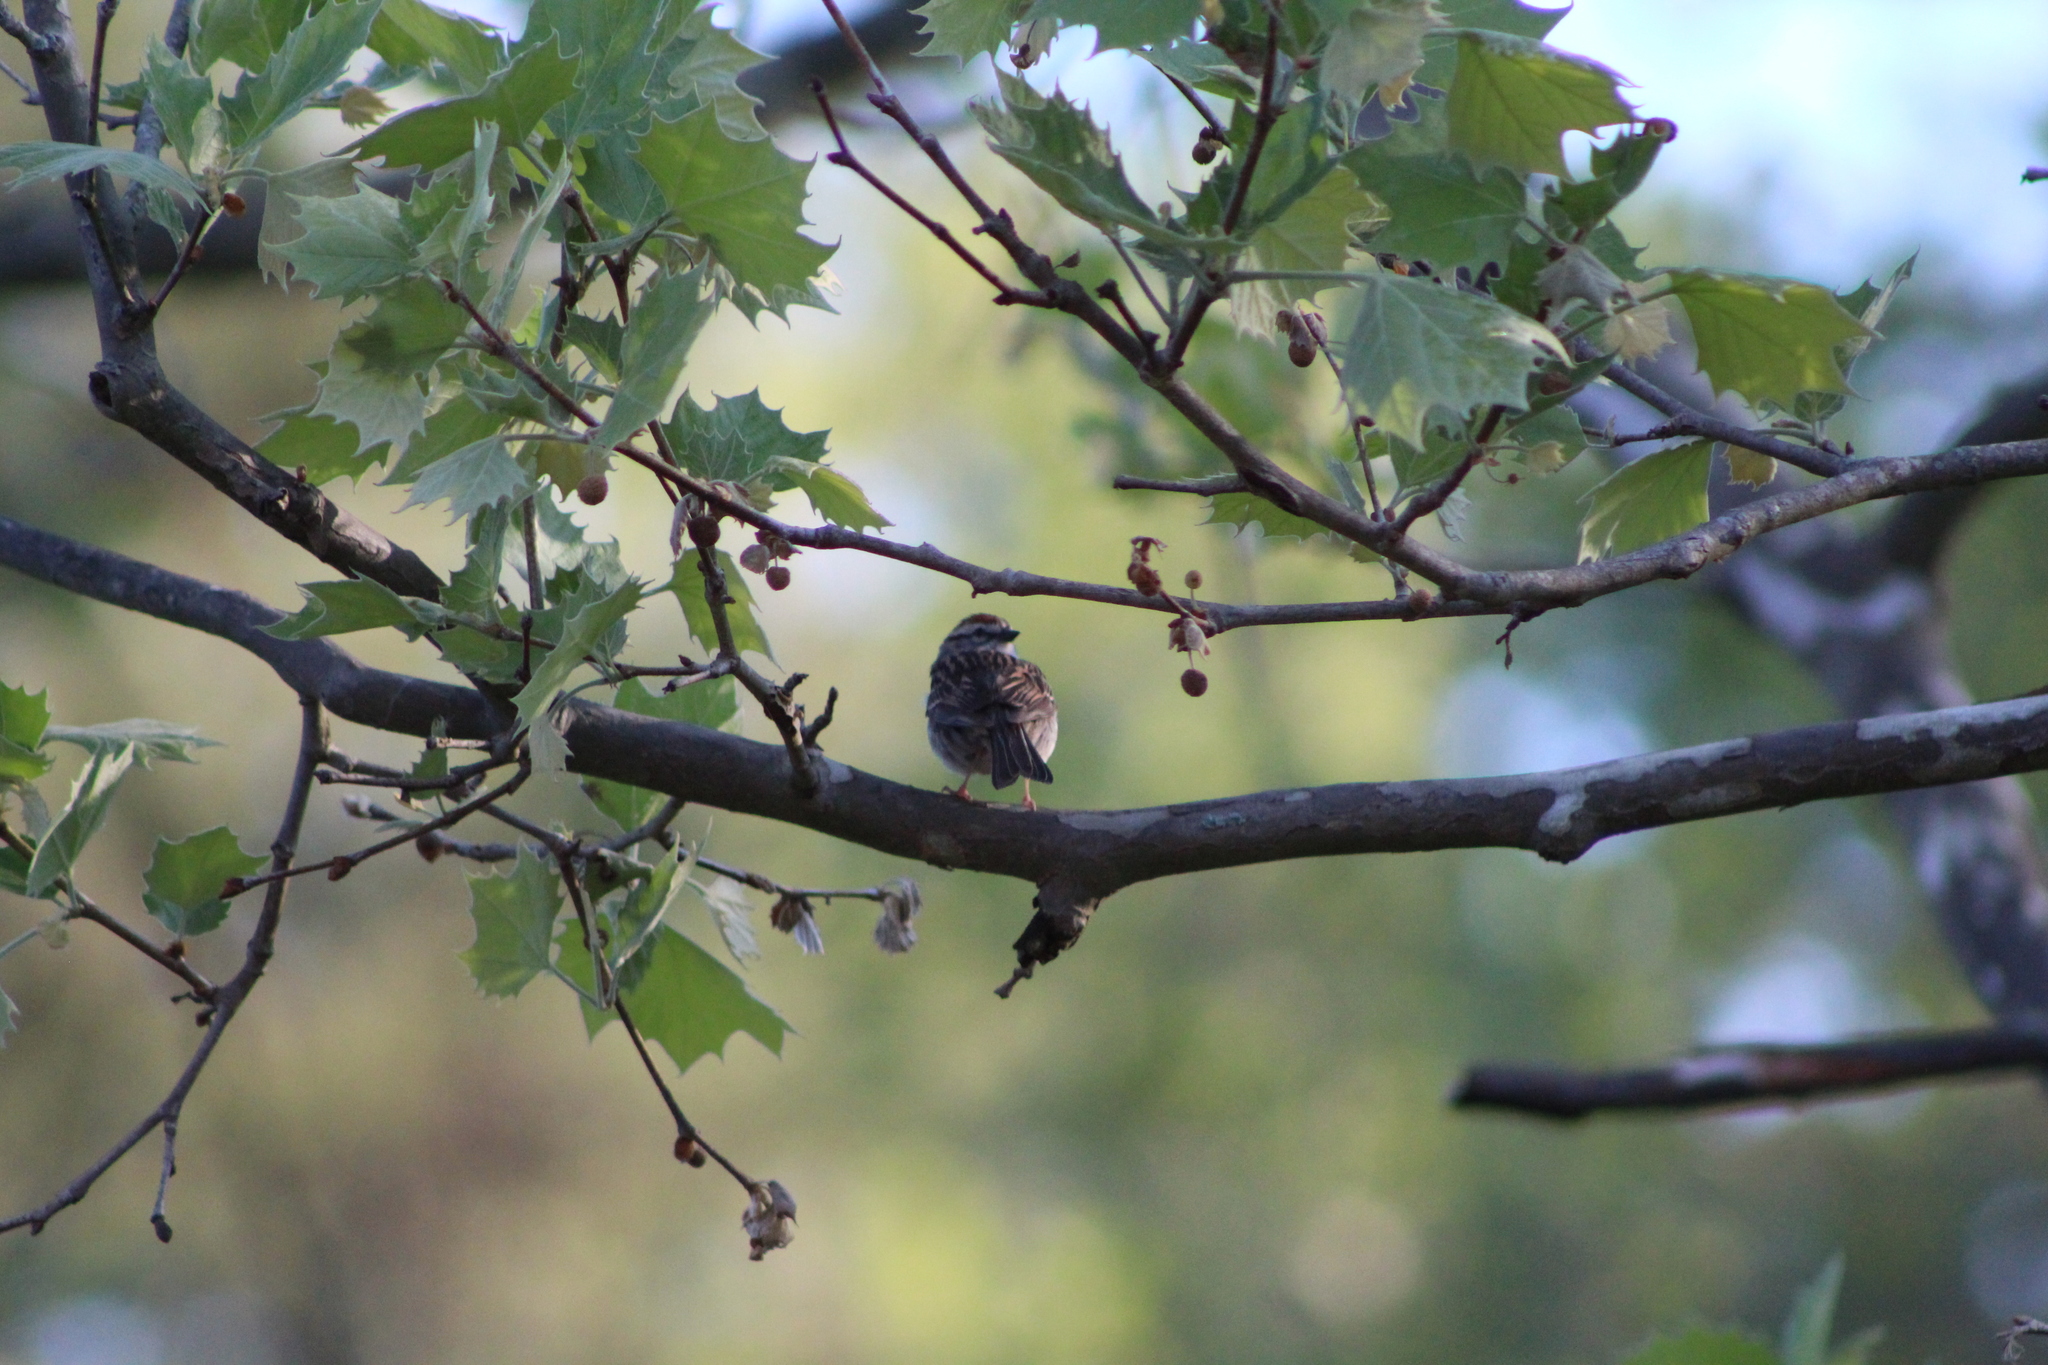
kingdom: Animalia
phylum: Chordata
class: Aves
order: Passeriformes
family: Passerellidae
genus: Spizella
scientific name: Spizella passerina
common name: Chipping sparrow
